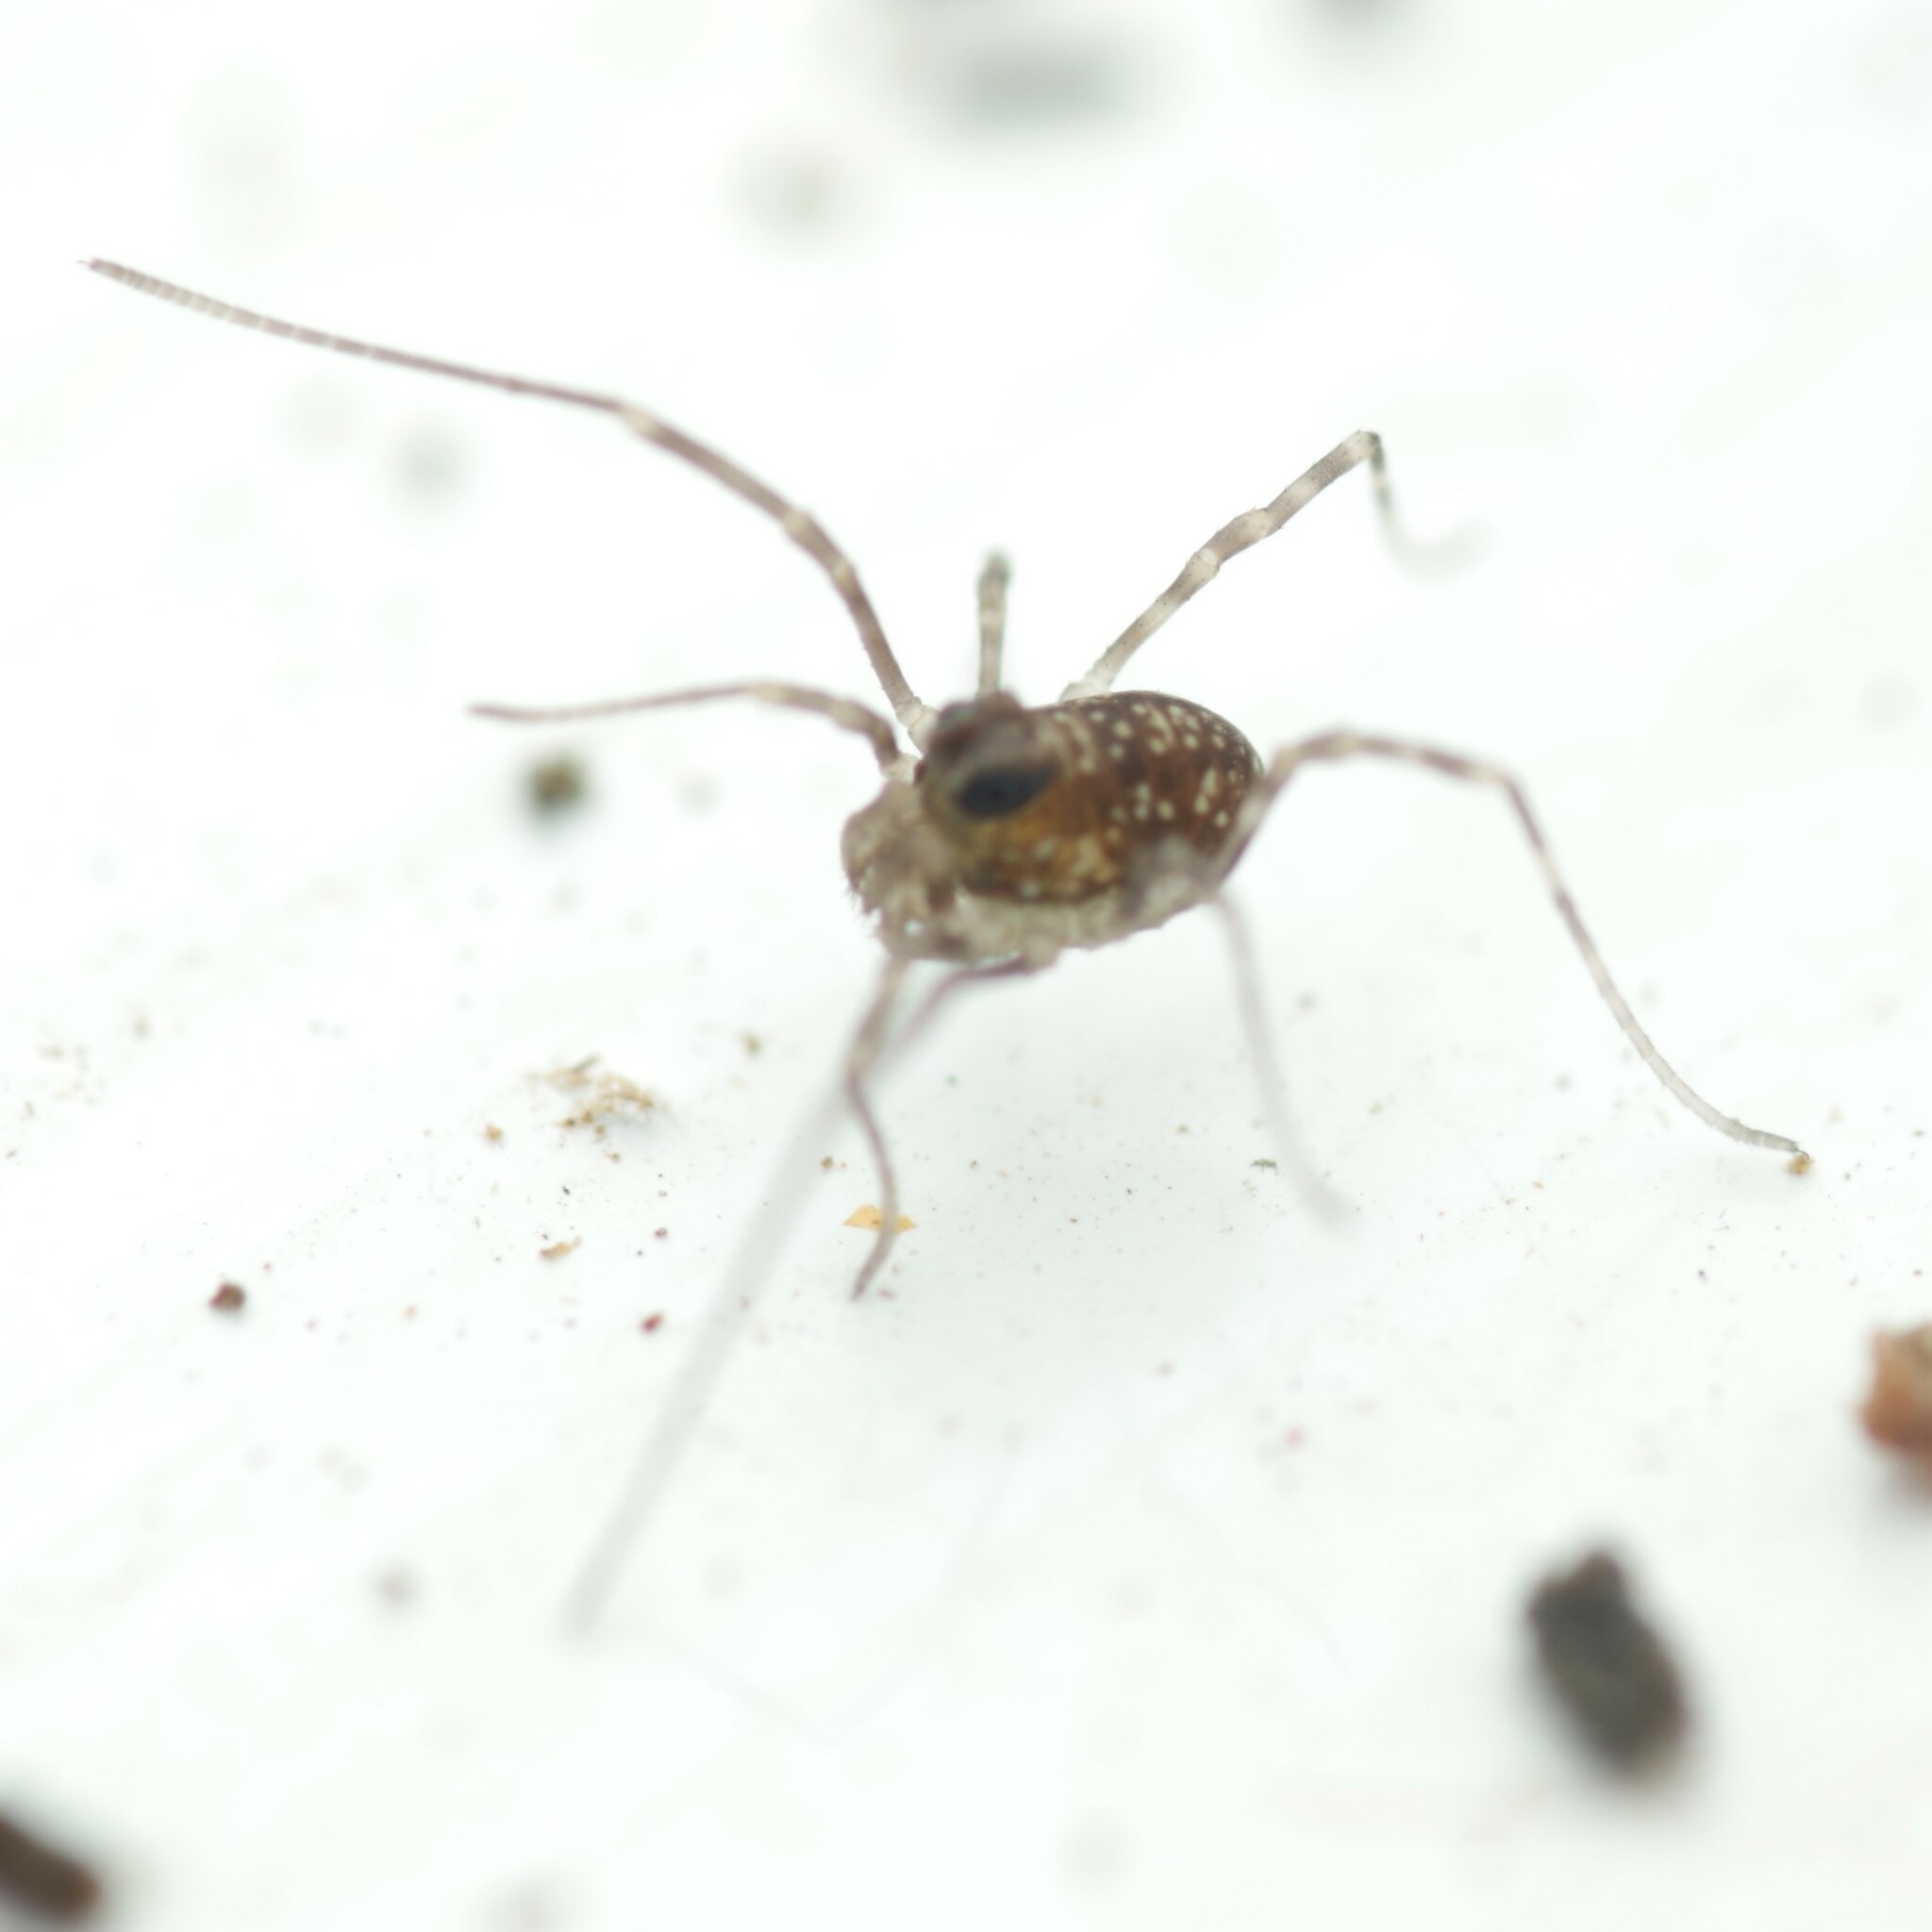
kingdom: Animalia
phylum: Arthropoda
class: Arachnida
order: Opiliones
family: Phalangiidae
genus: Rilaena
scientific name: Rilaena triangularis
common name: Spring harvestman
